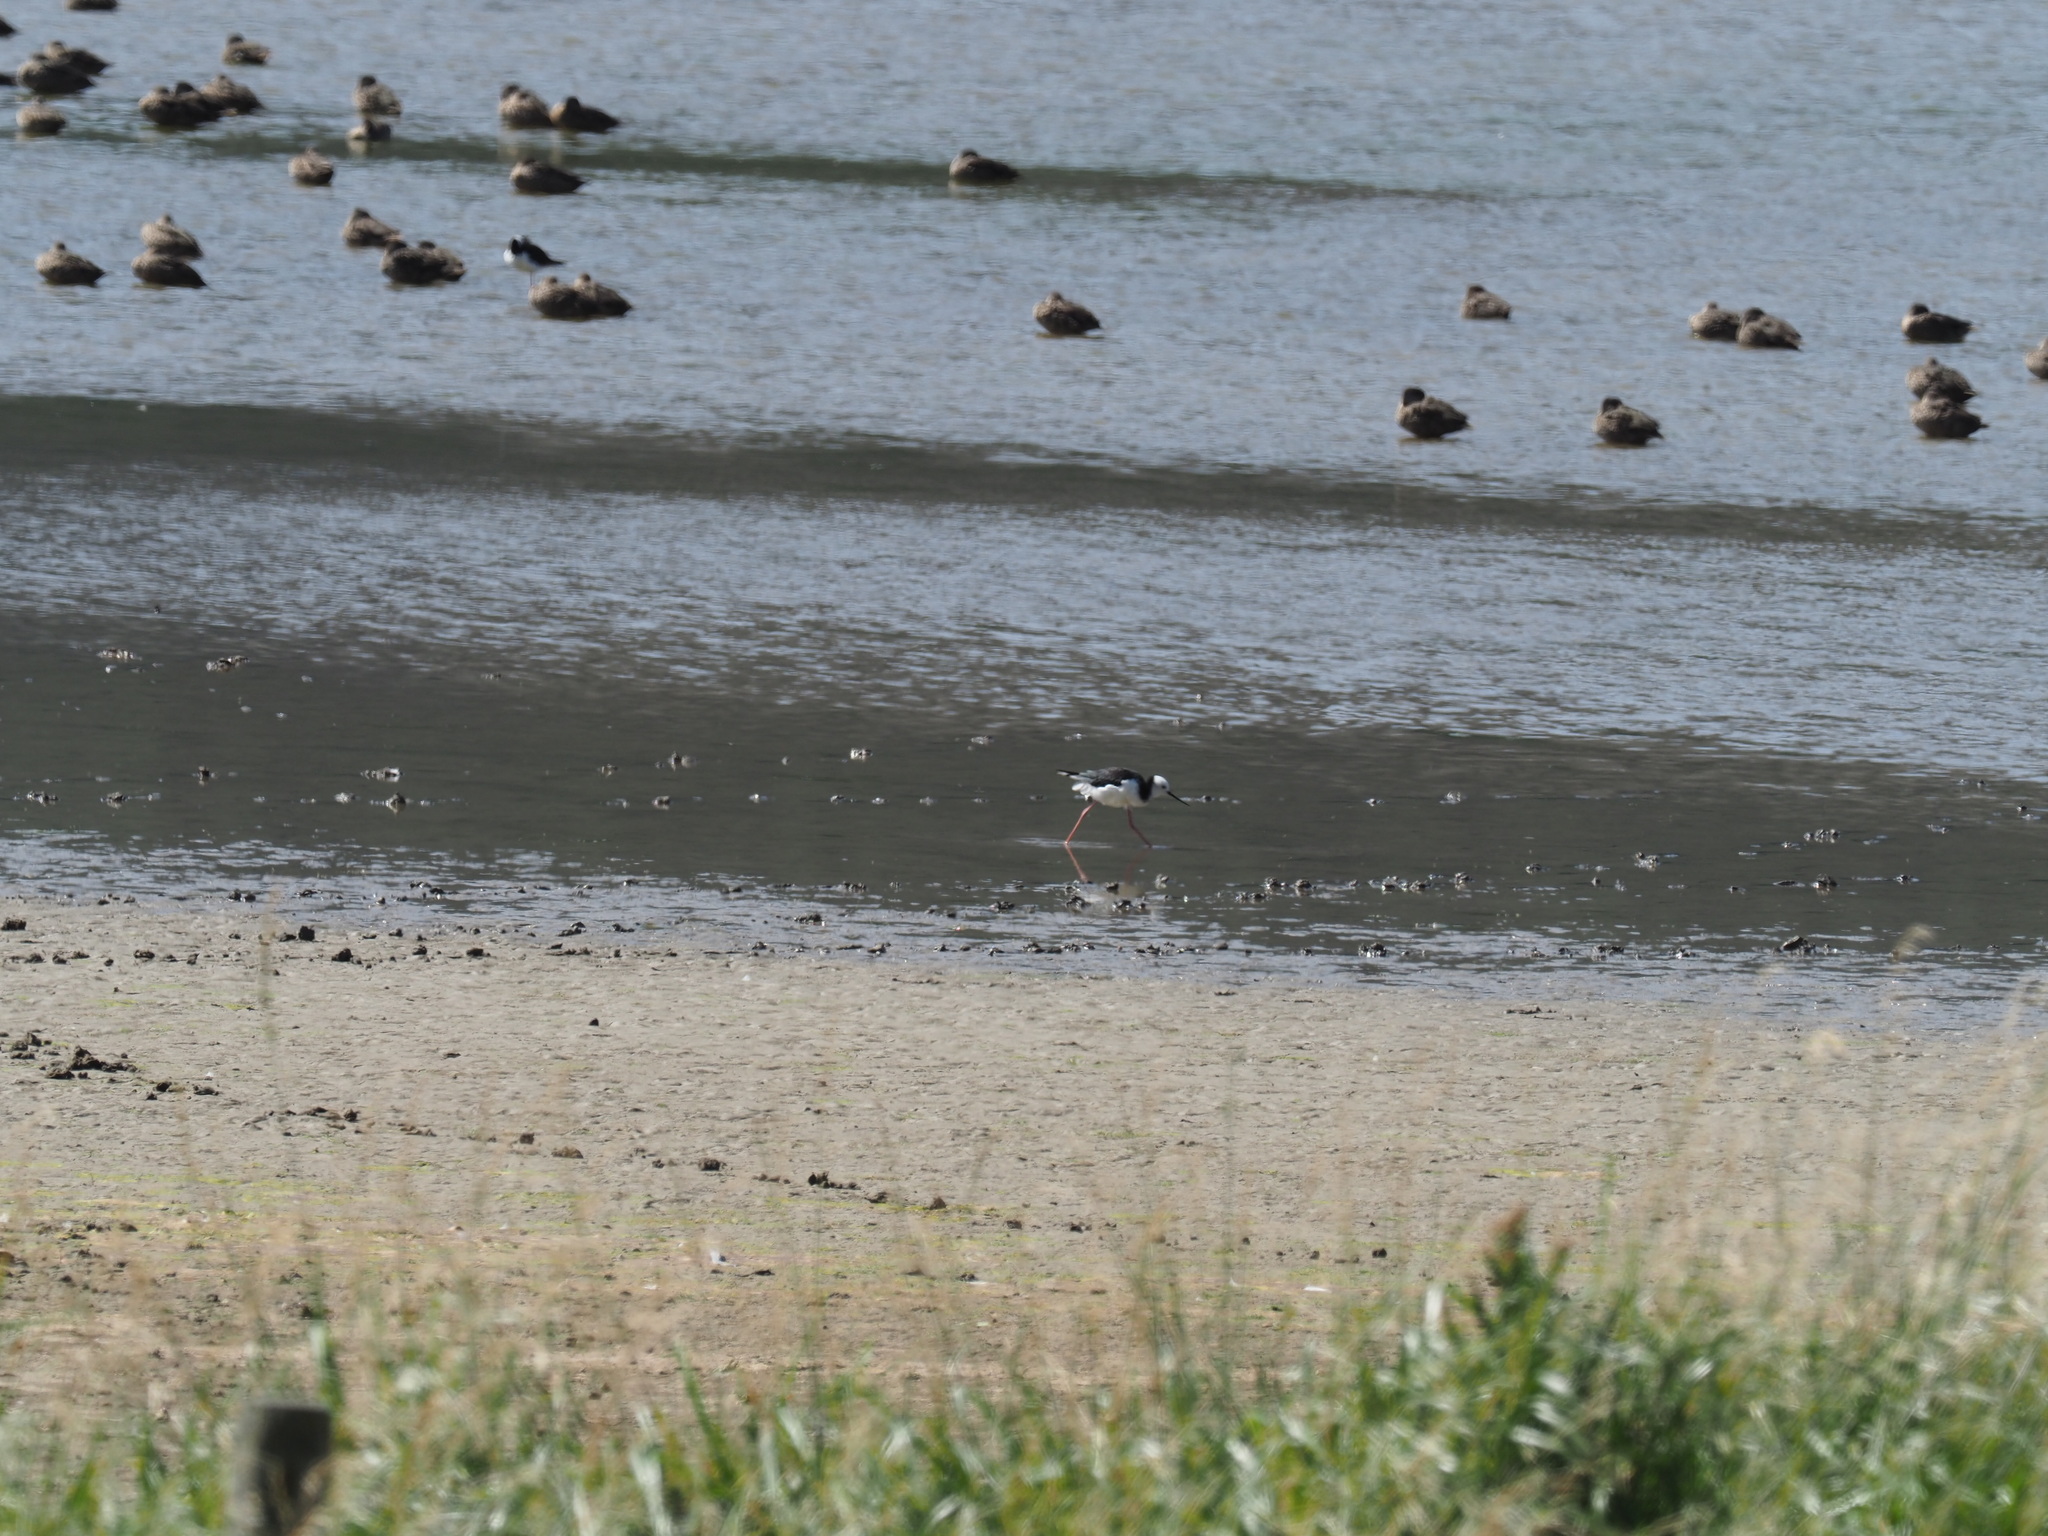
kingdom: Animalia
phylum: Chordata
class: Aves
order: Charadriiformes
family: Recurvirostridae
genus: Himantopus
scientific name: Himantopus leucocephalus
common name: White-headed stilt
